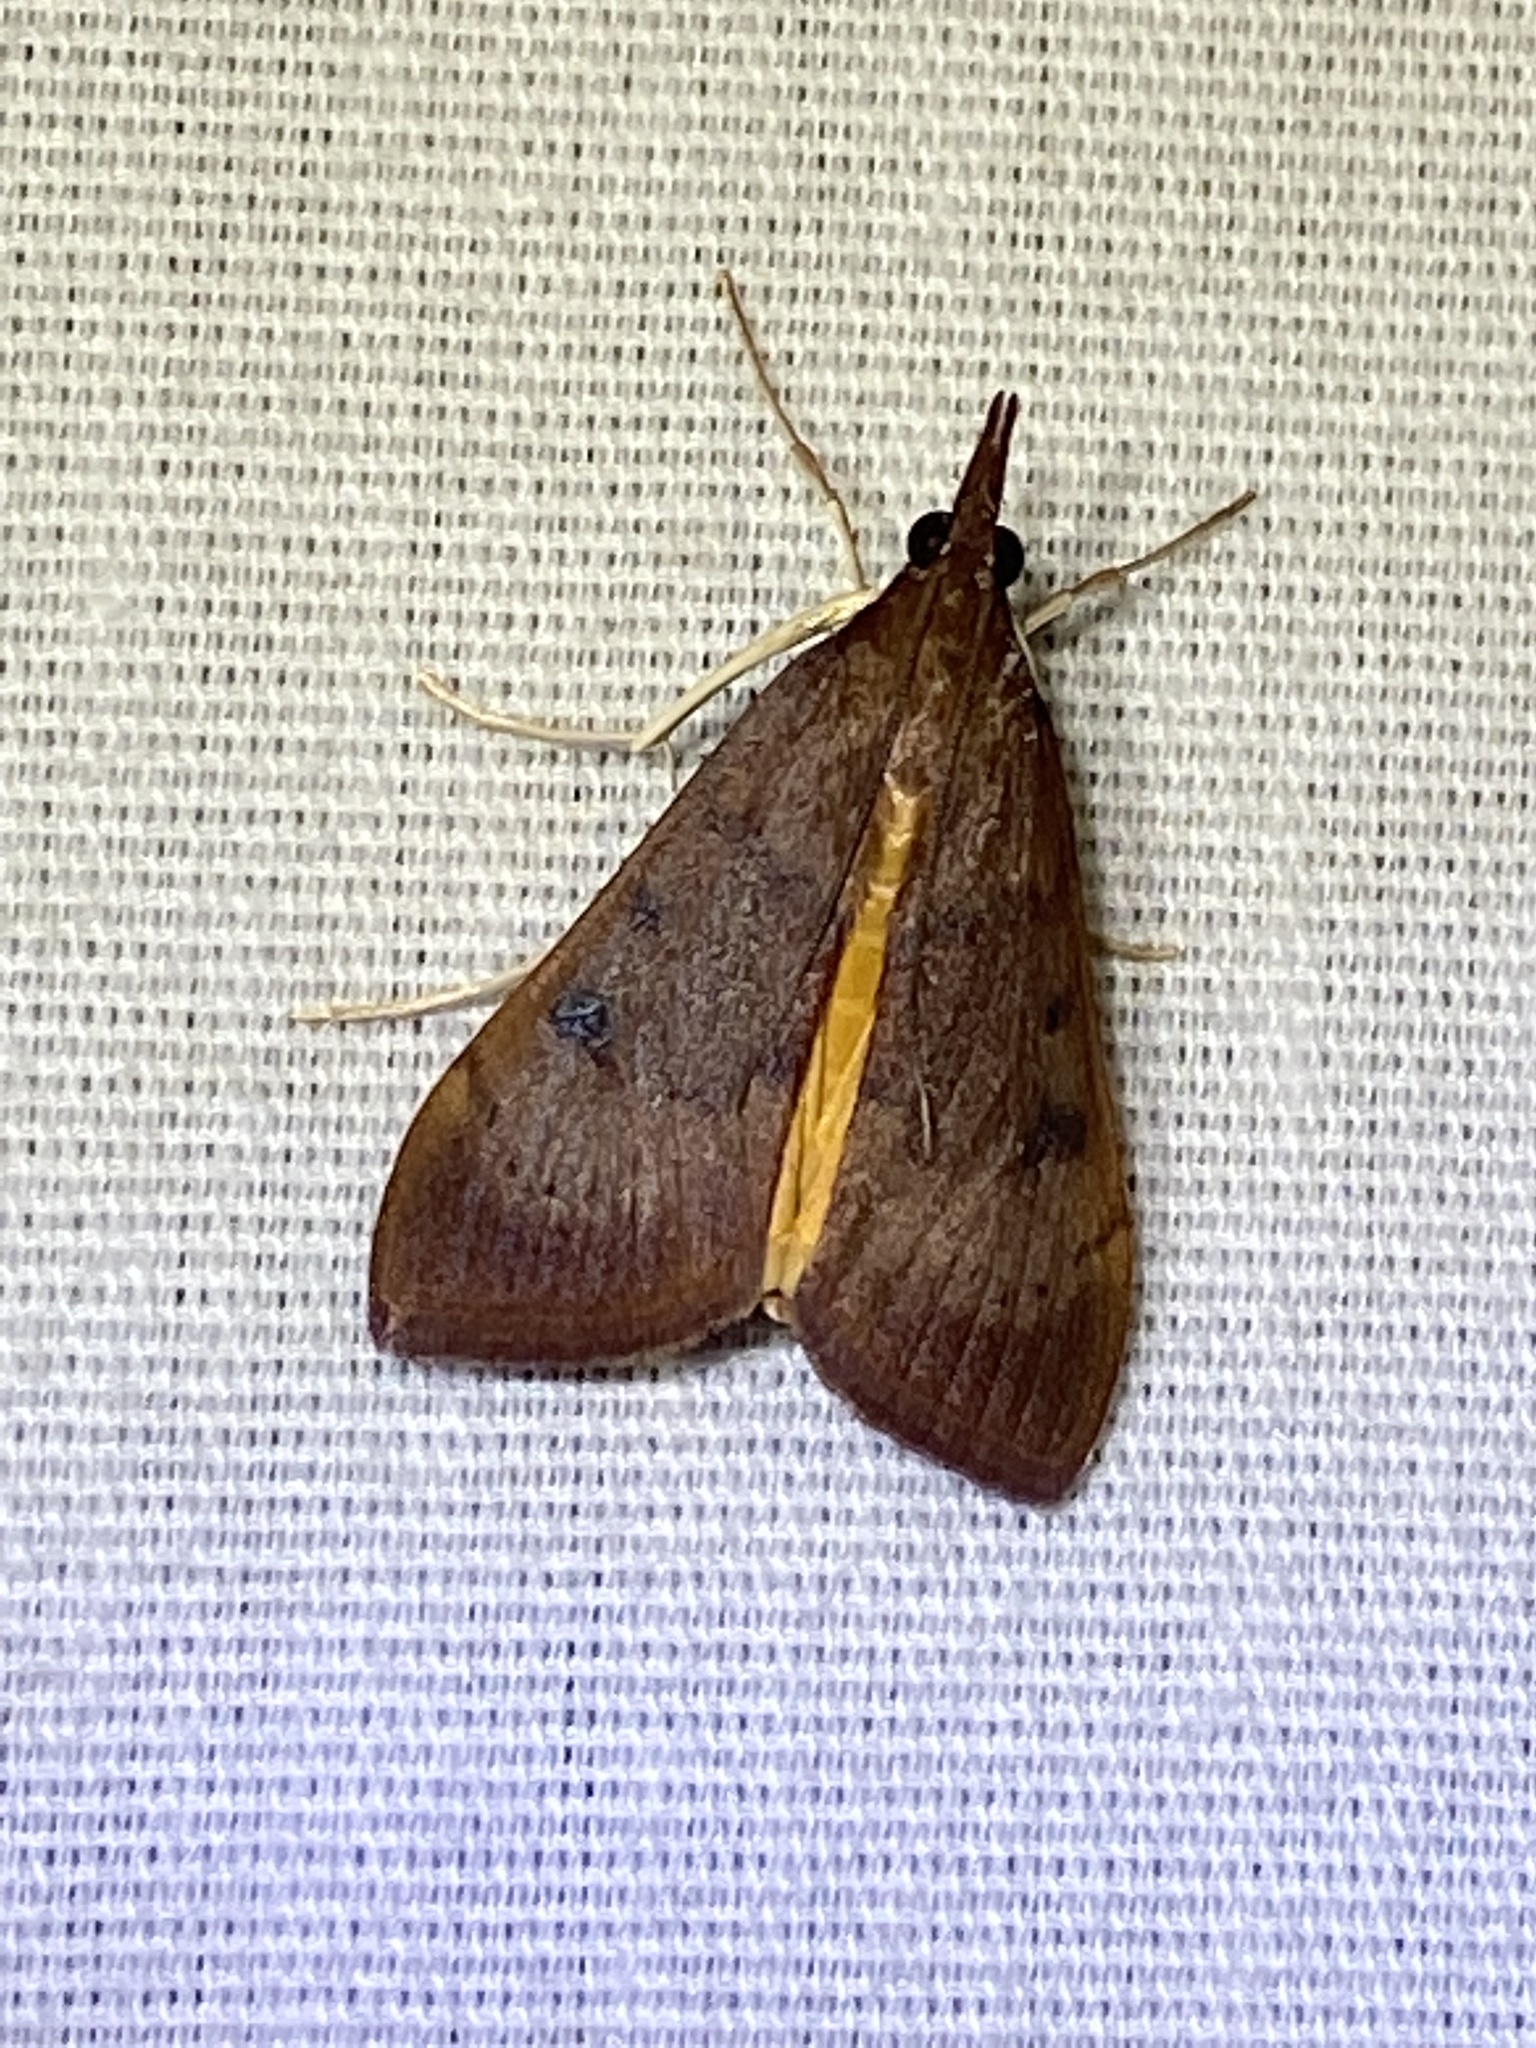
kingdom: Animalia
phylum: Arthropoda
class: Insecta
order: Lepidoptera
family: Crambidae
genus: Uresiphita
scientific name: Uresiphita reversalis
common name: Genista broom moth
